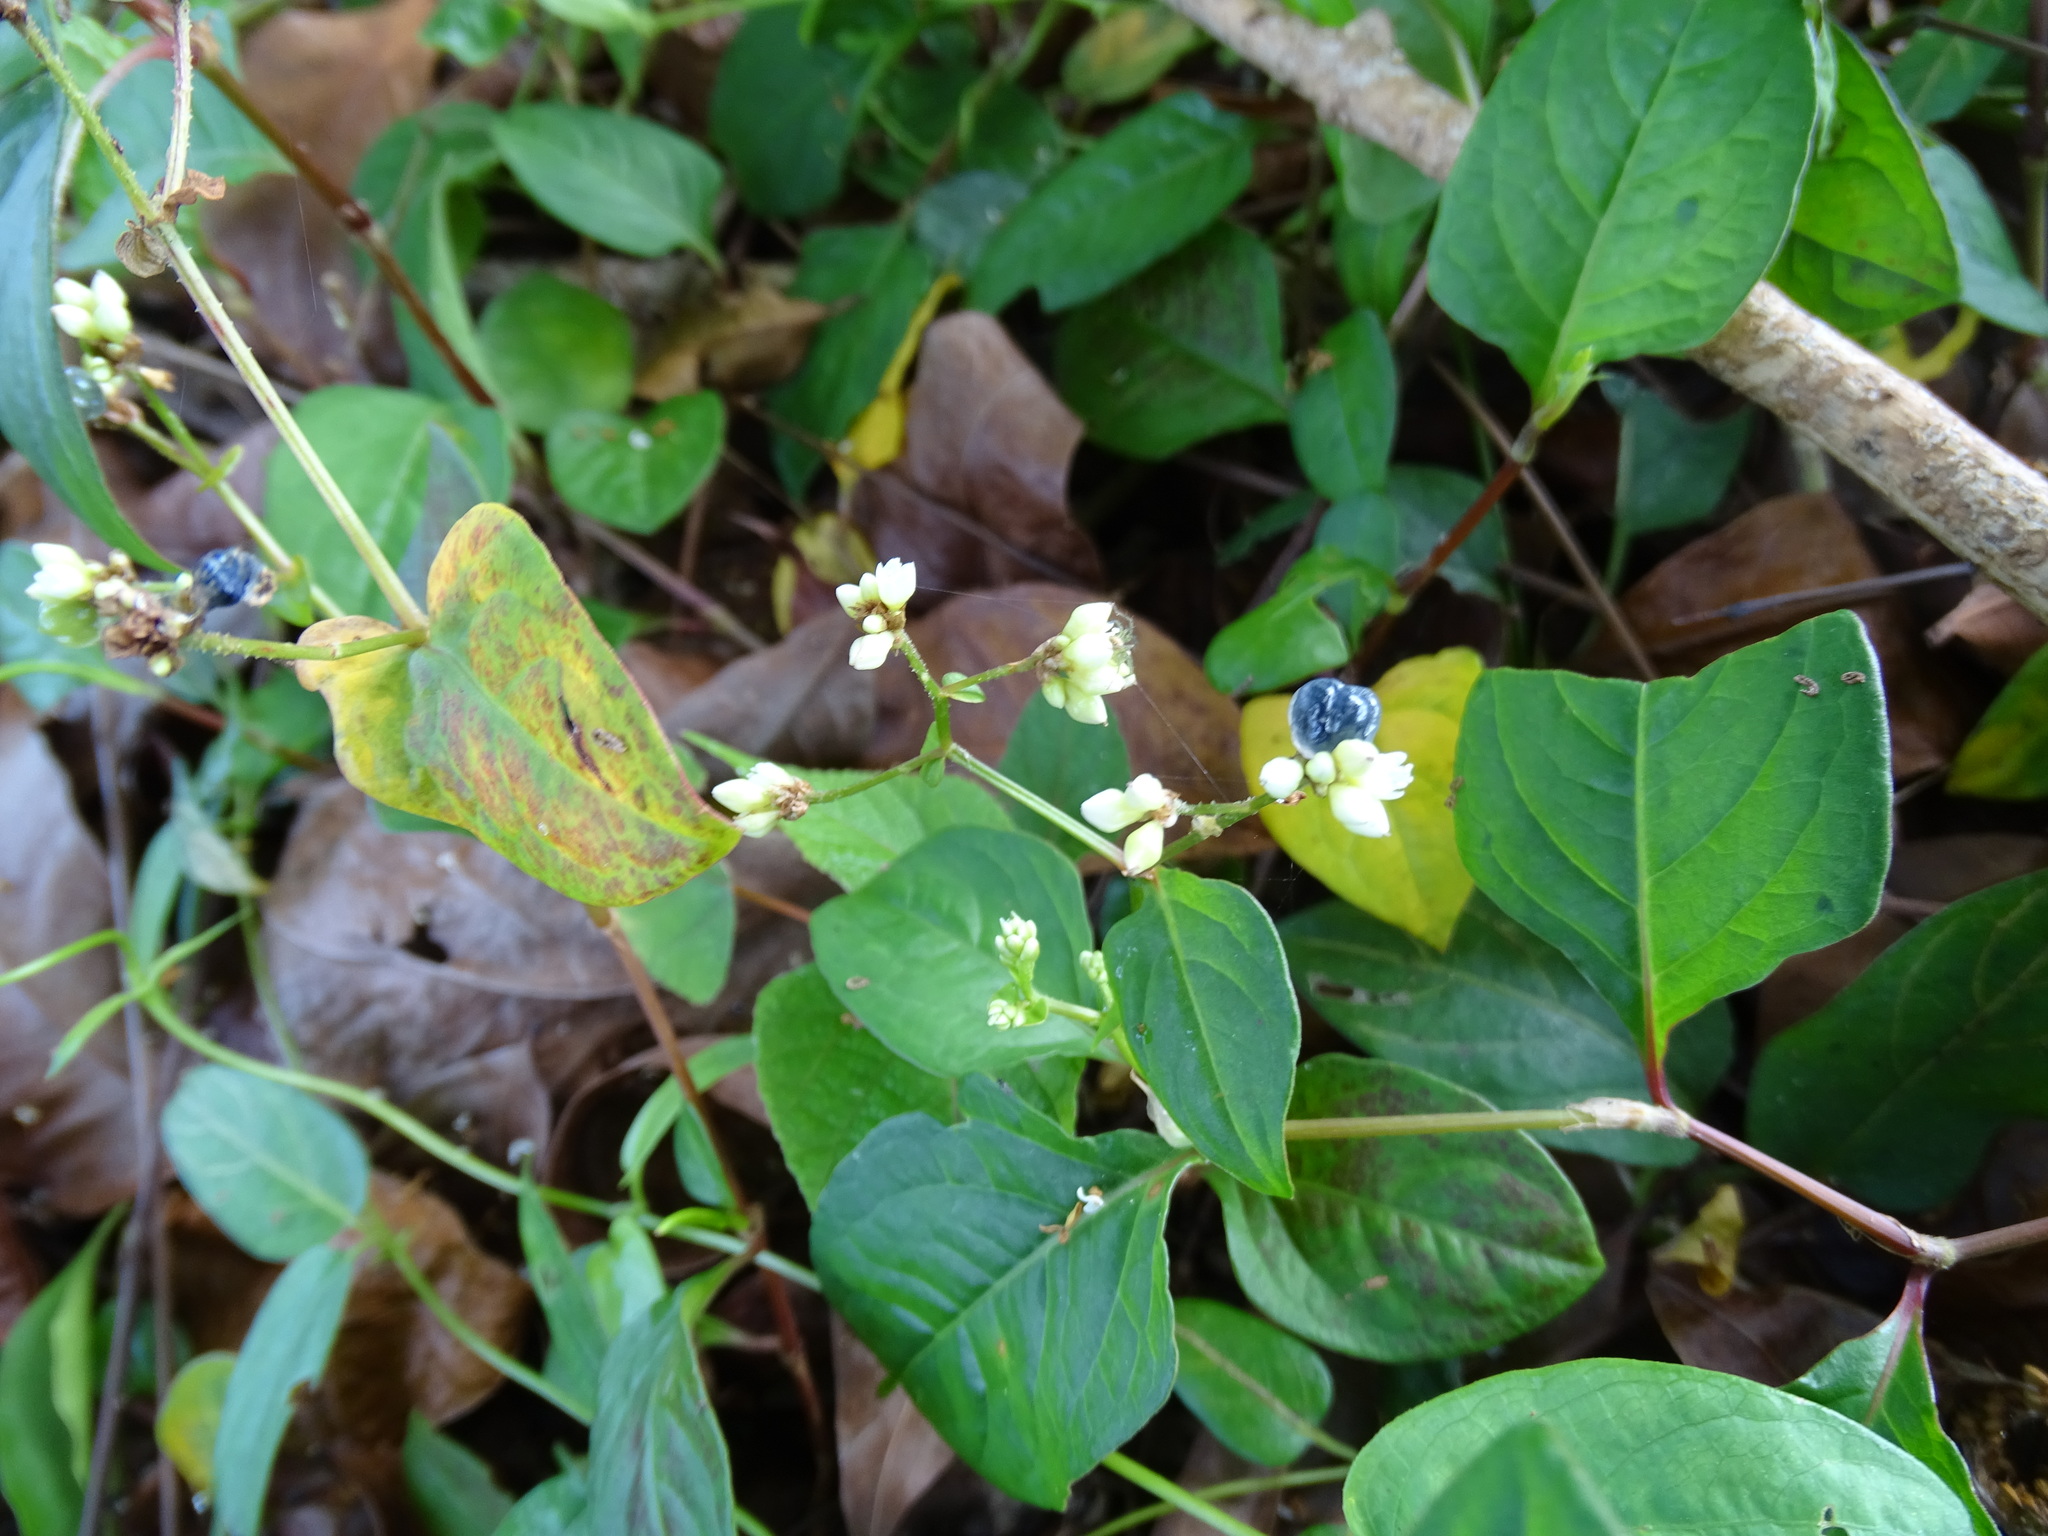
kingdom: Plantae
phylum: Tracheophyta
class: Magnoliopsida
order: Caryophyllales
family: Polygonaceae
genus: Persicaria
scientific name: Persicaria chinensis
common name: Chinese knotweed
